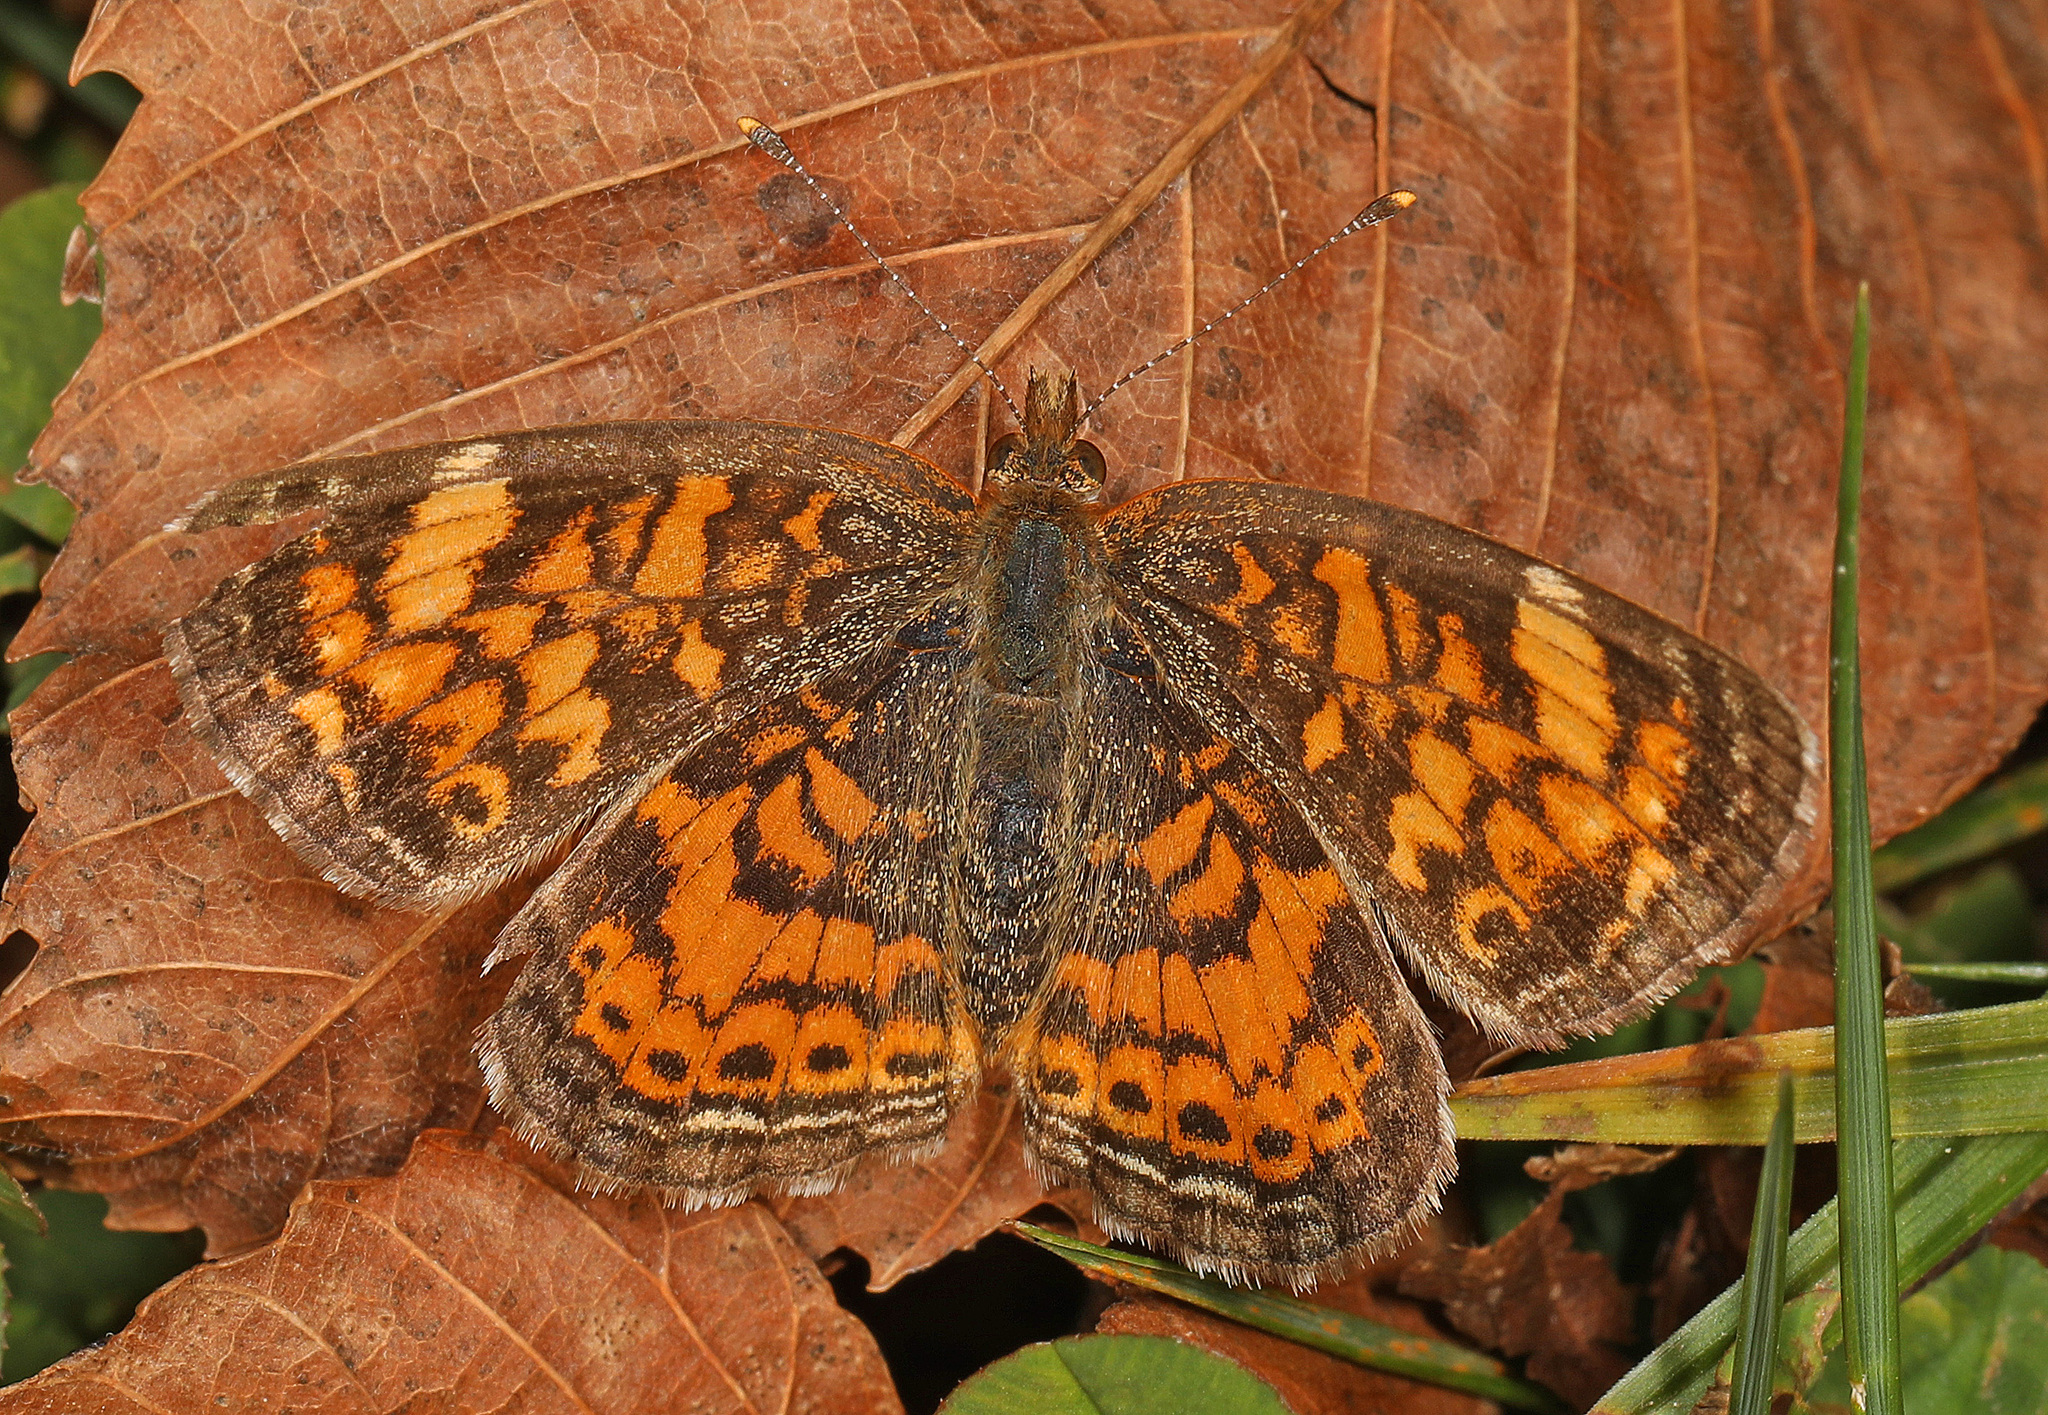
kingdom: Animalia
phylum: Arthropoda
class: Insecta
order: Lepidoptera
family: Nymphalidae
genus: Phyciodes
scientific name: Phyciodes tharos
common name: Pearl crescent
